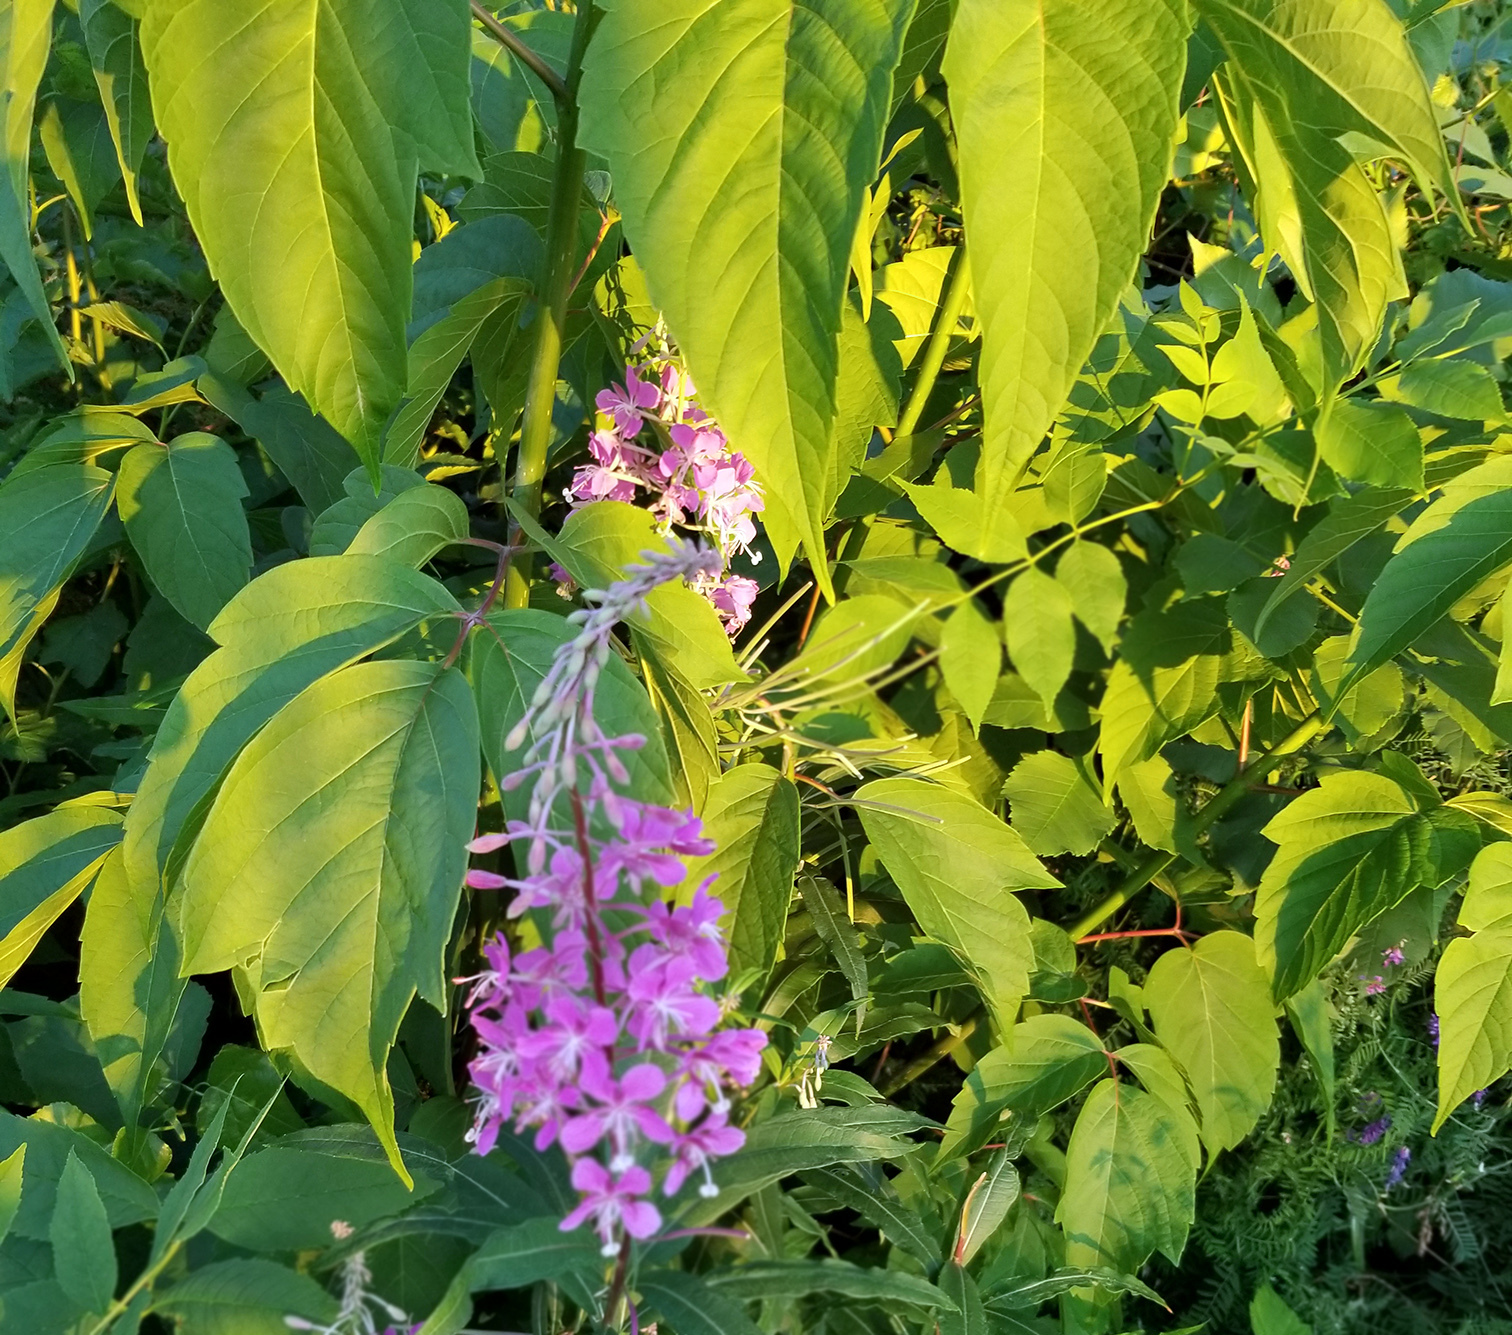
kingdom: Plantae
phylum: Tracheophyta
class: Magnoliopsida
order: Sapindales
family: Sapindaceae
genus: Acer
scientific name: Acer negundo
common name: Ashleaf maple
